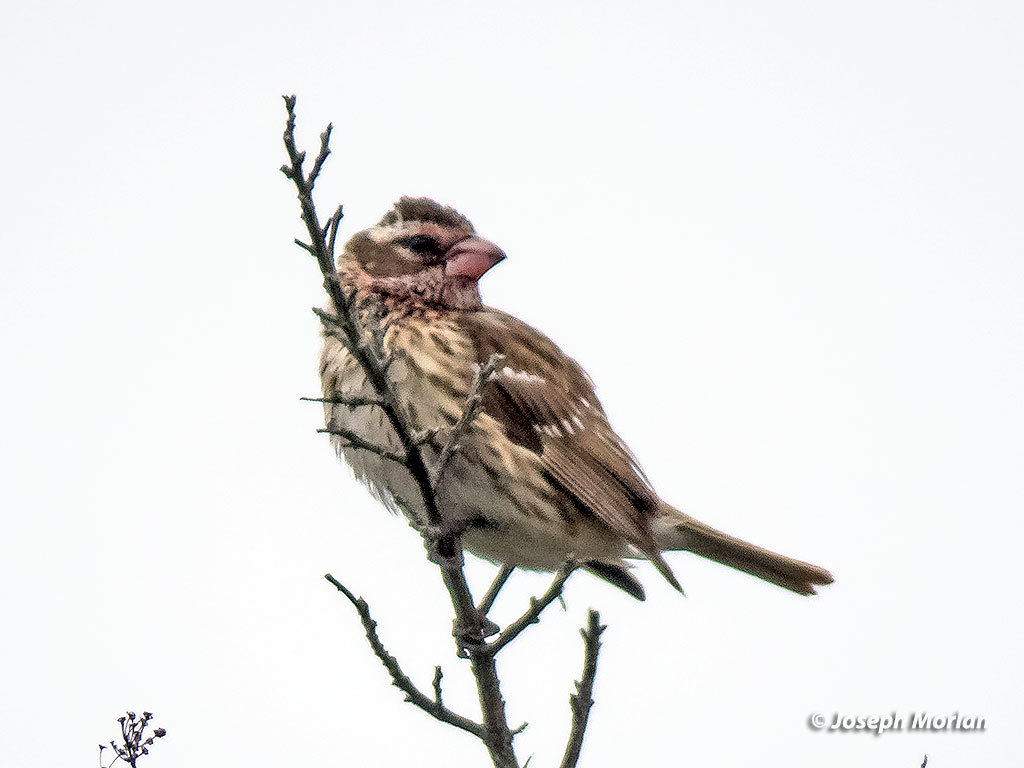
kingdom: Animalia
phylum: Chordata
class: Aves
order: Passeriformes
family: Cardinalidae
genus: Pheucticus
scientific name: Pheucticus ludovicianus
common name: Rose-breasted grosbeak
